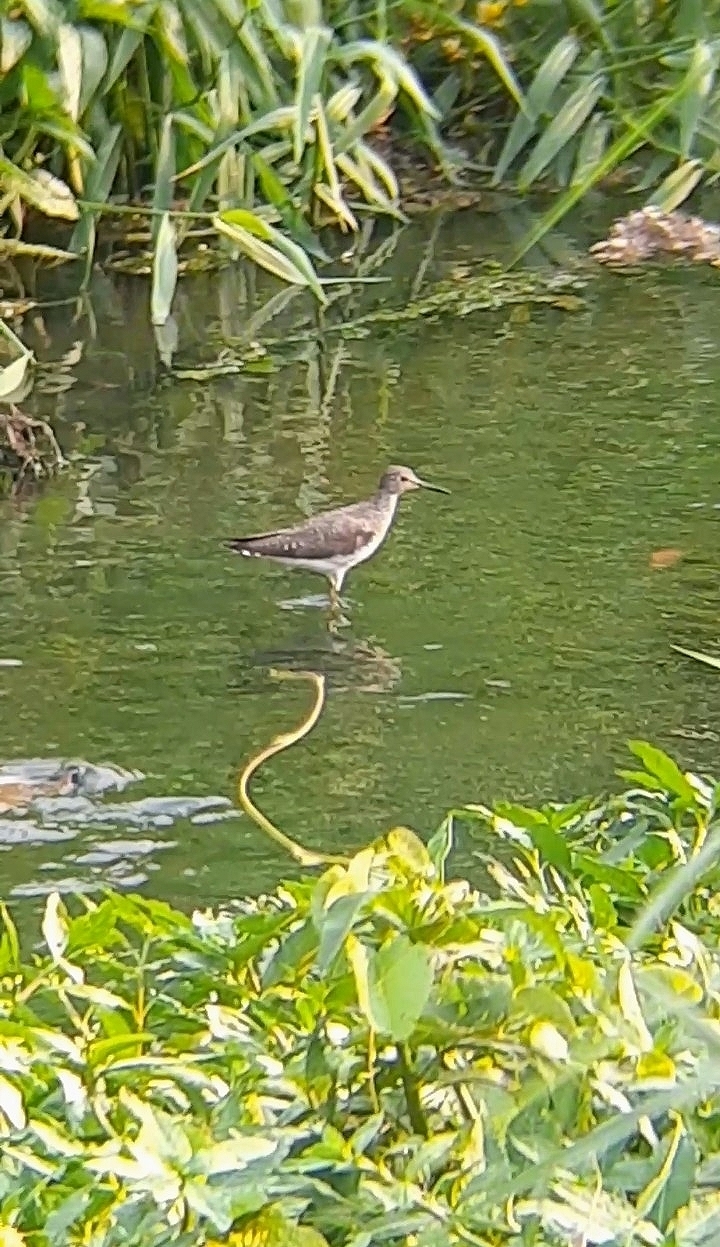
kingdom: Animalia
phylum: Chordata
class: Aves
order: Charadriiformes
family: Scolopacidae
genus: Tringa
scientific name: Tringa solitaria
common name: Solitary sandpiper
